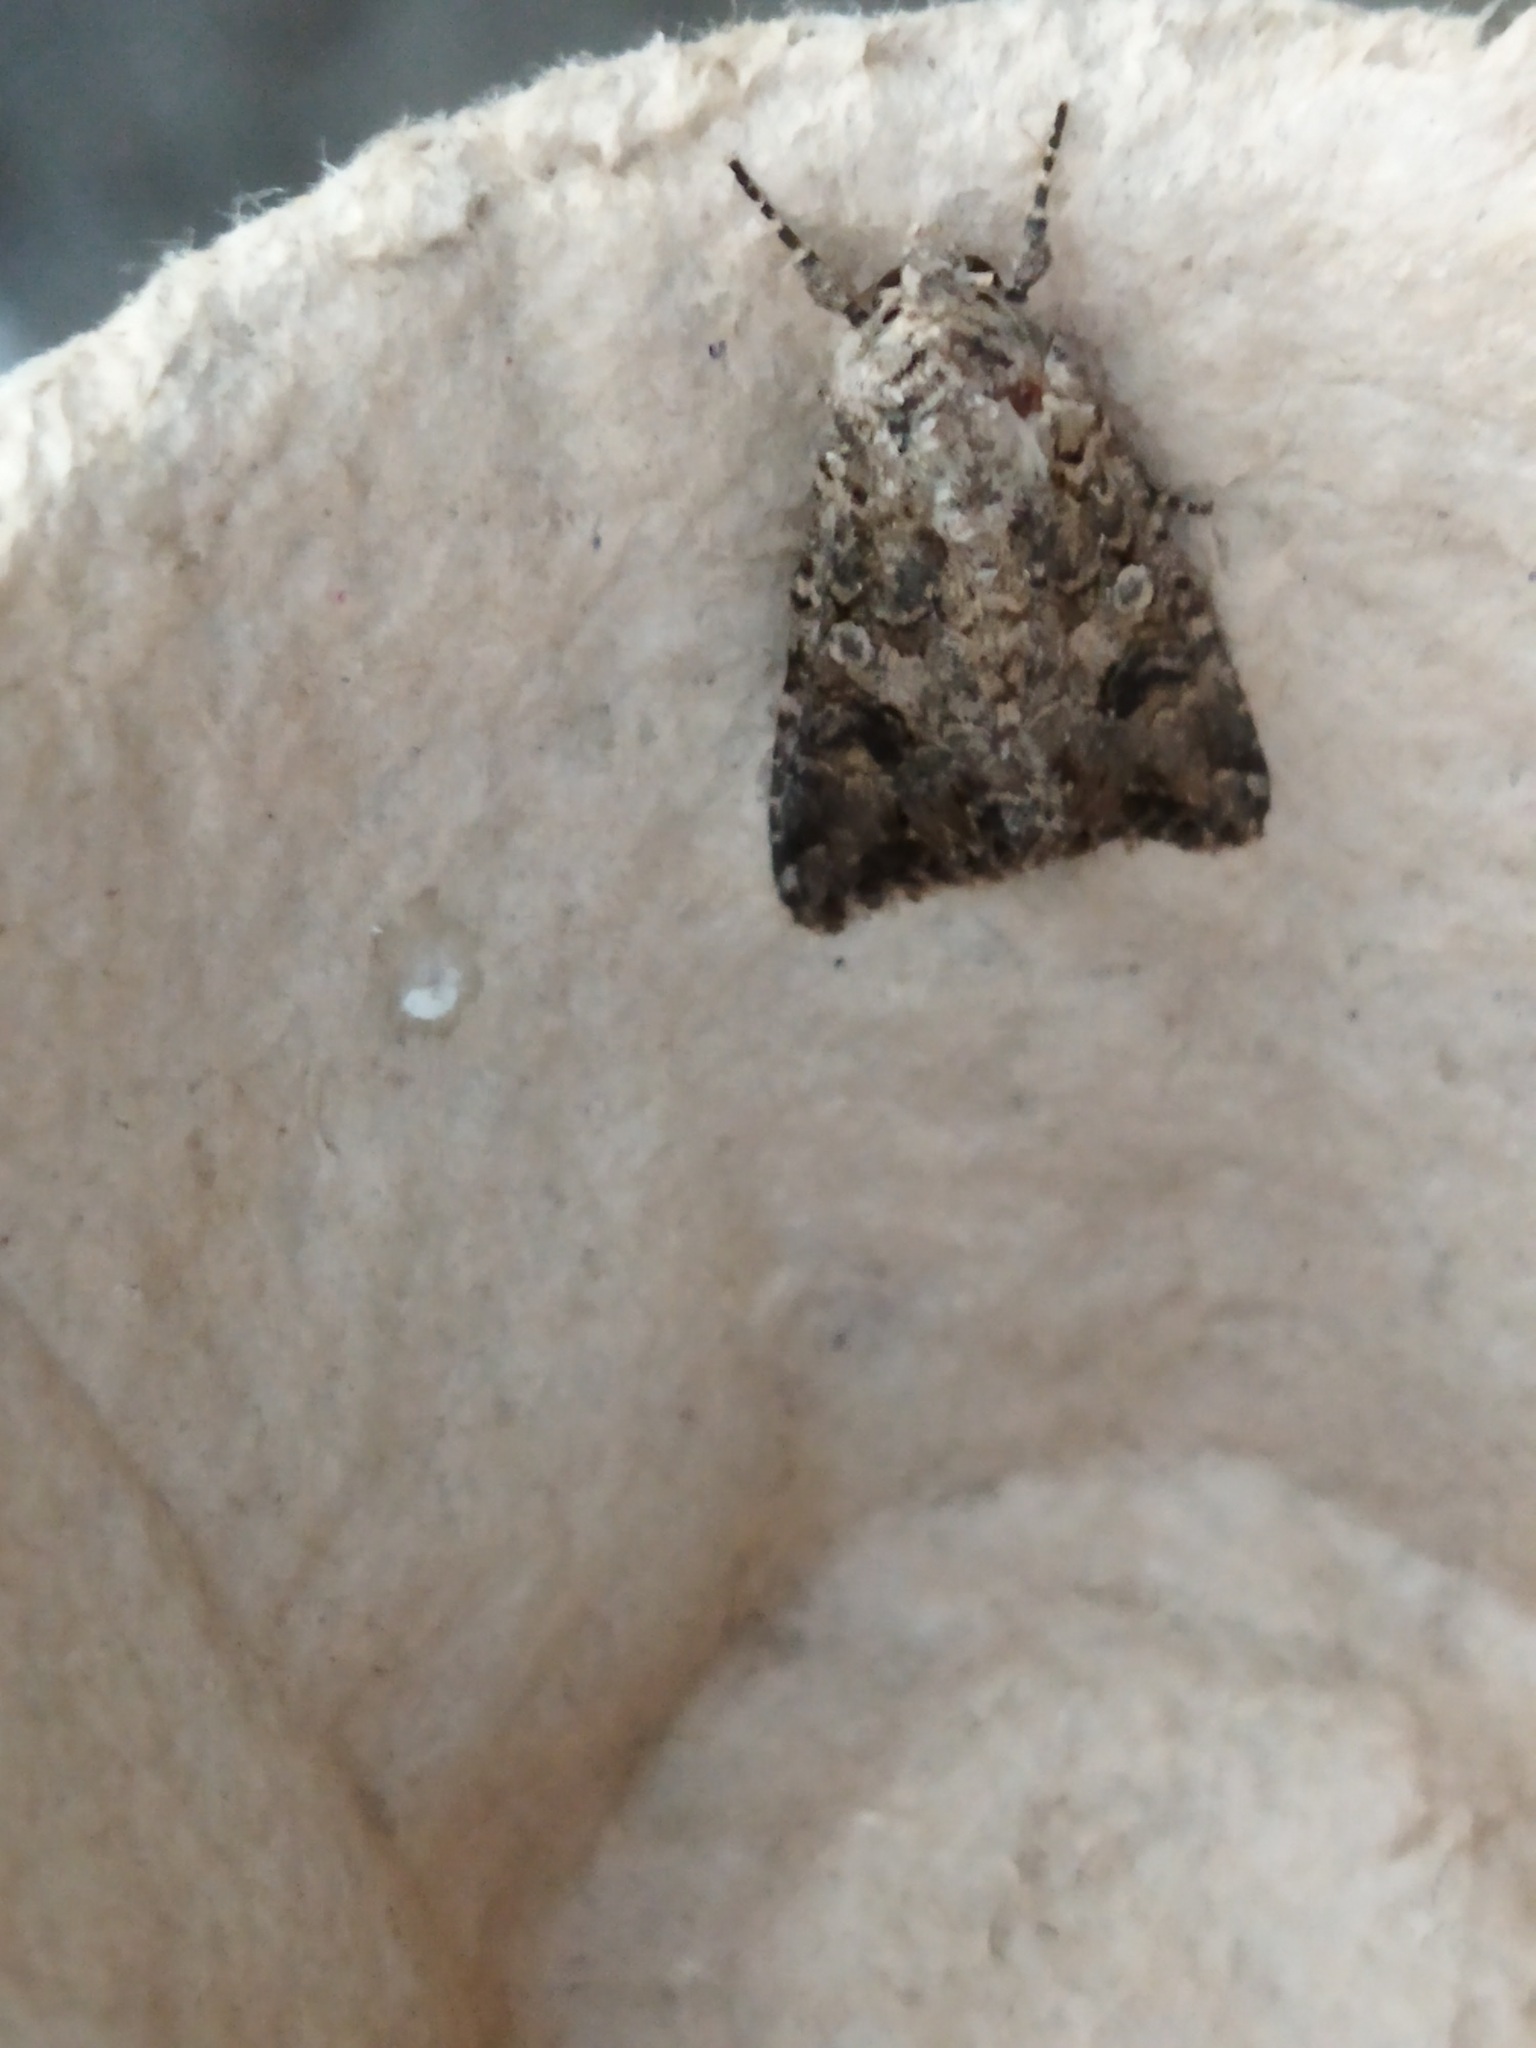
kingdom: Animalia
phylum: Arthropoda
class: Insecta
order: Lepidoptera
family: Noctuidae
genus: Anarta
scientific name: Anarta trifolii
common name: Clover cutworm moth
